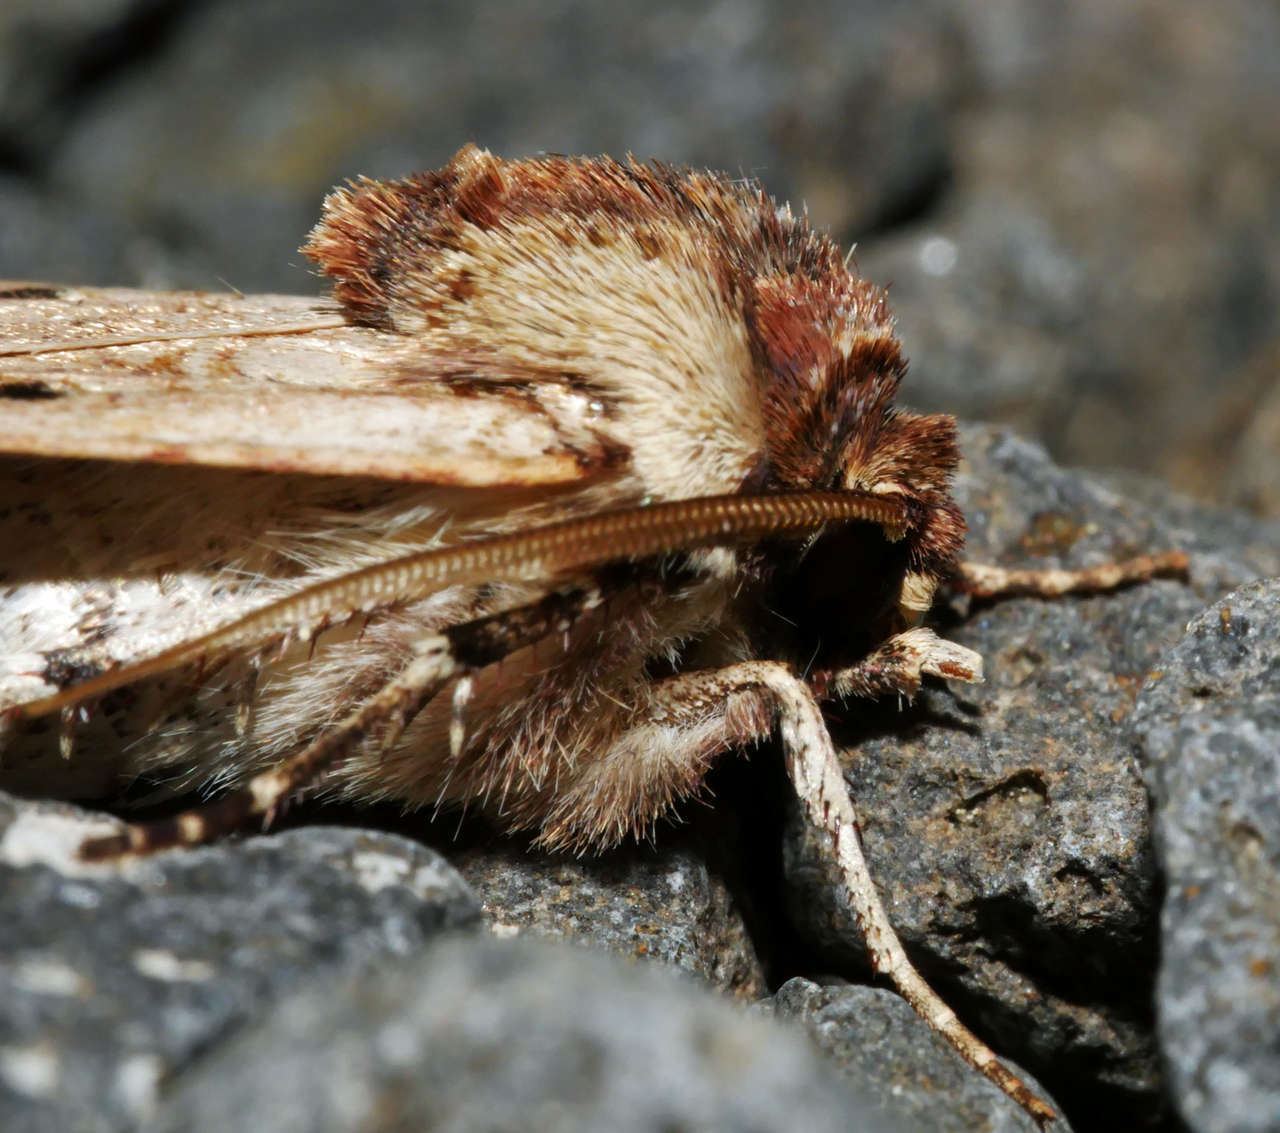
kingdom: Animalia
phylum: Arthropoda
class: Insecta
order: Lepidoptera
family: Noctuidae
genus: Agrotis
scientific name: Agrotis porphyricollis
